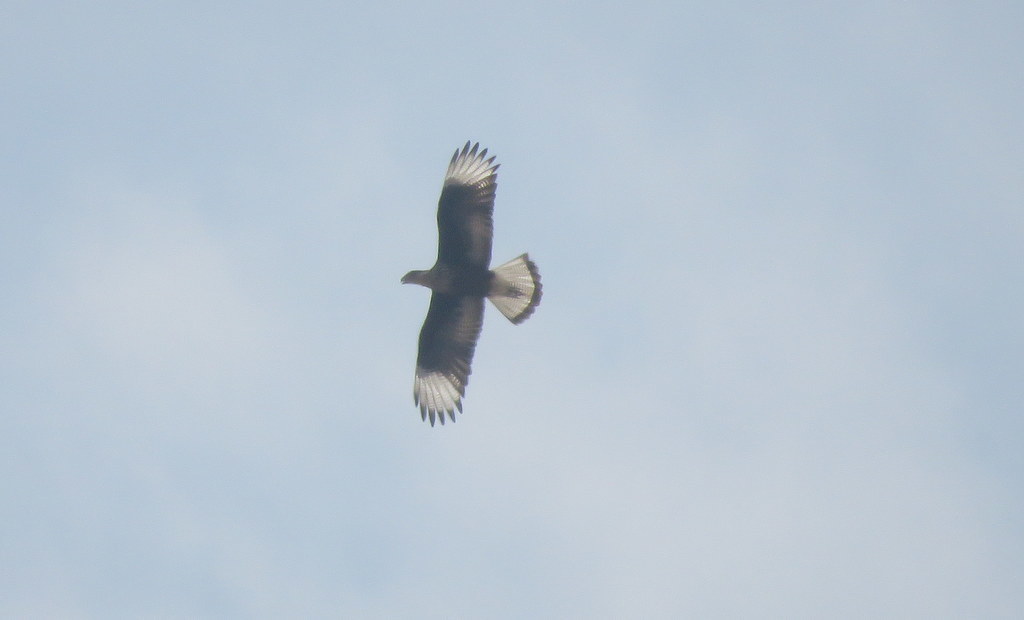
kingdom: Animalia
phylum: Chordata
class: Aves
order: Falconiformes
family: Falconidae
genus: Caracara
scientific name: Caracara plancus
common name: Southern caracara
